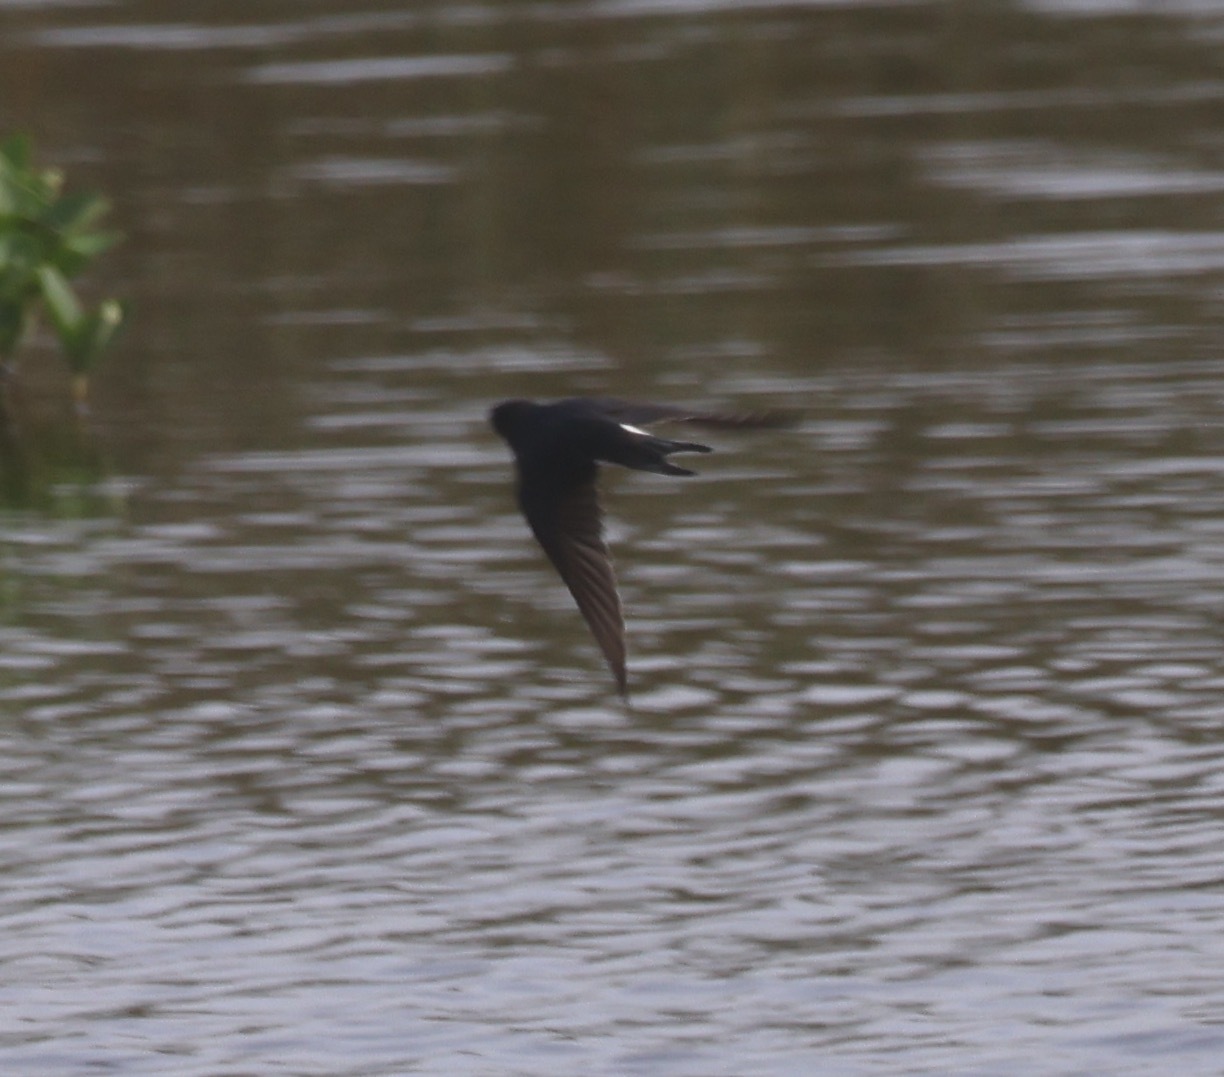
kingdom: Animalia
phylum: Chordata
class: Aves
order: Passeriformes
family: Hirundinidae
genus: Hirundo
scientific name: Hirundo rustica
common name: Barn swallow
